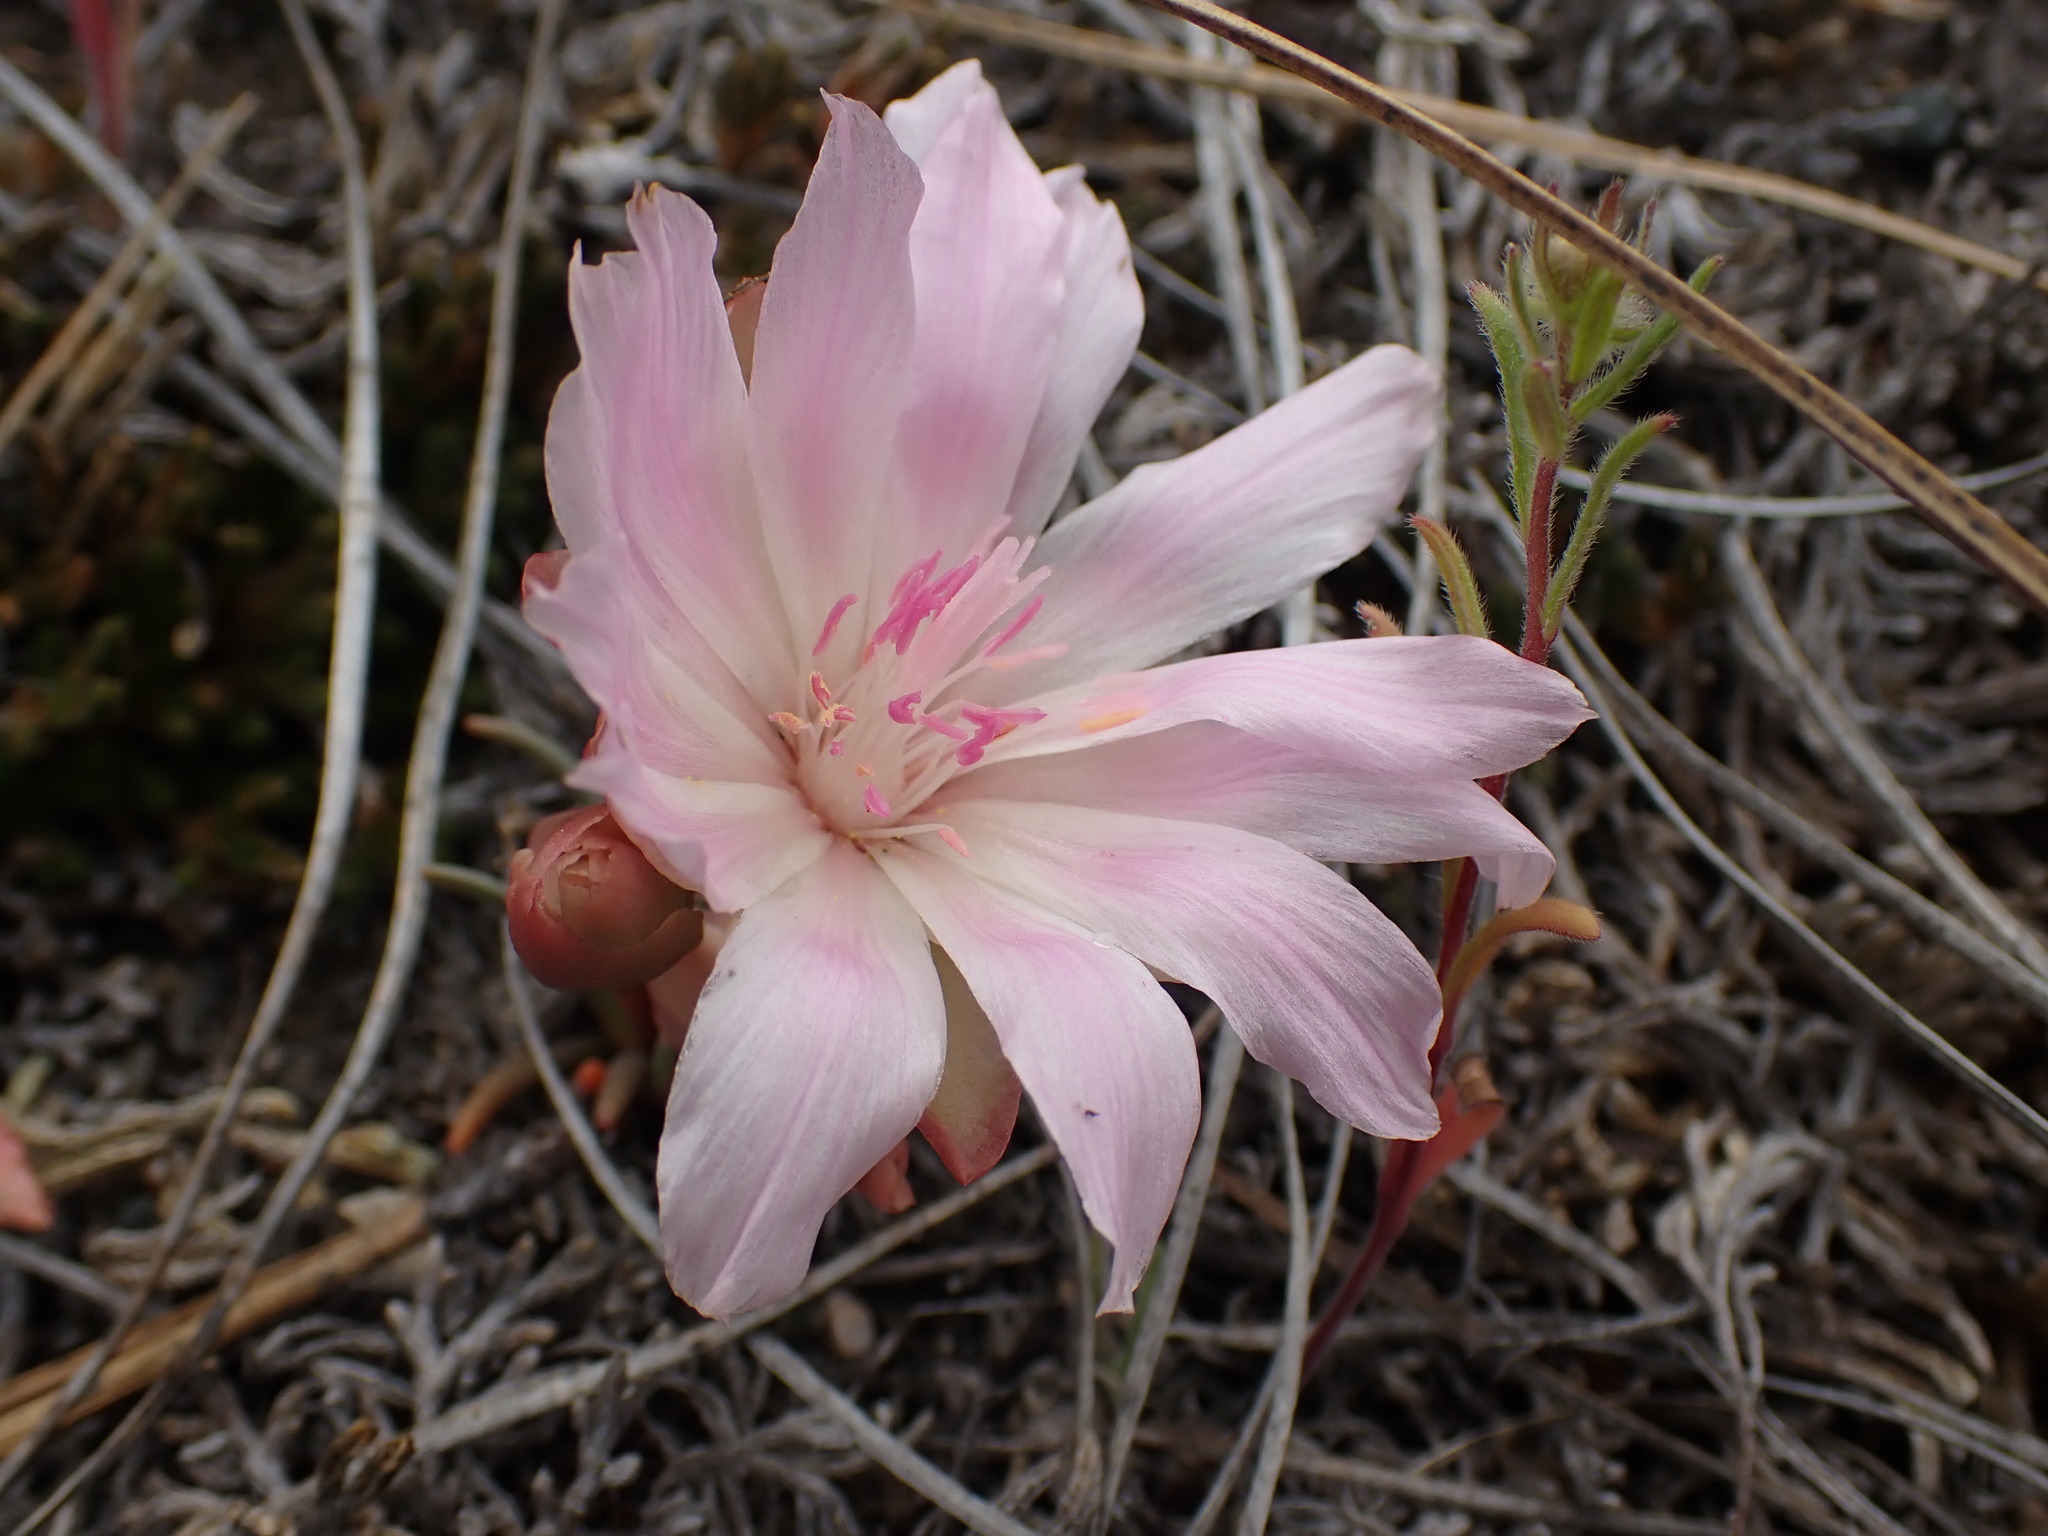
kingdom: Plantae
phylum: Tracheophyta
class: Magnoliopsida
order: Caryophyllales
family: Montiaceae
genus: Lewisia
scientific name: Lewisia rediviva
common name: Bitter-root
